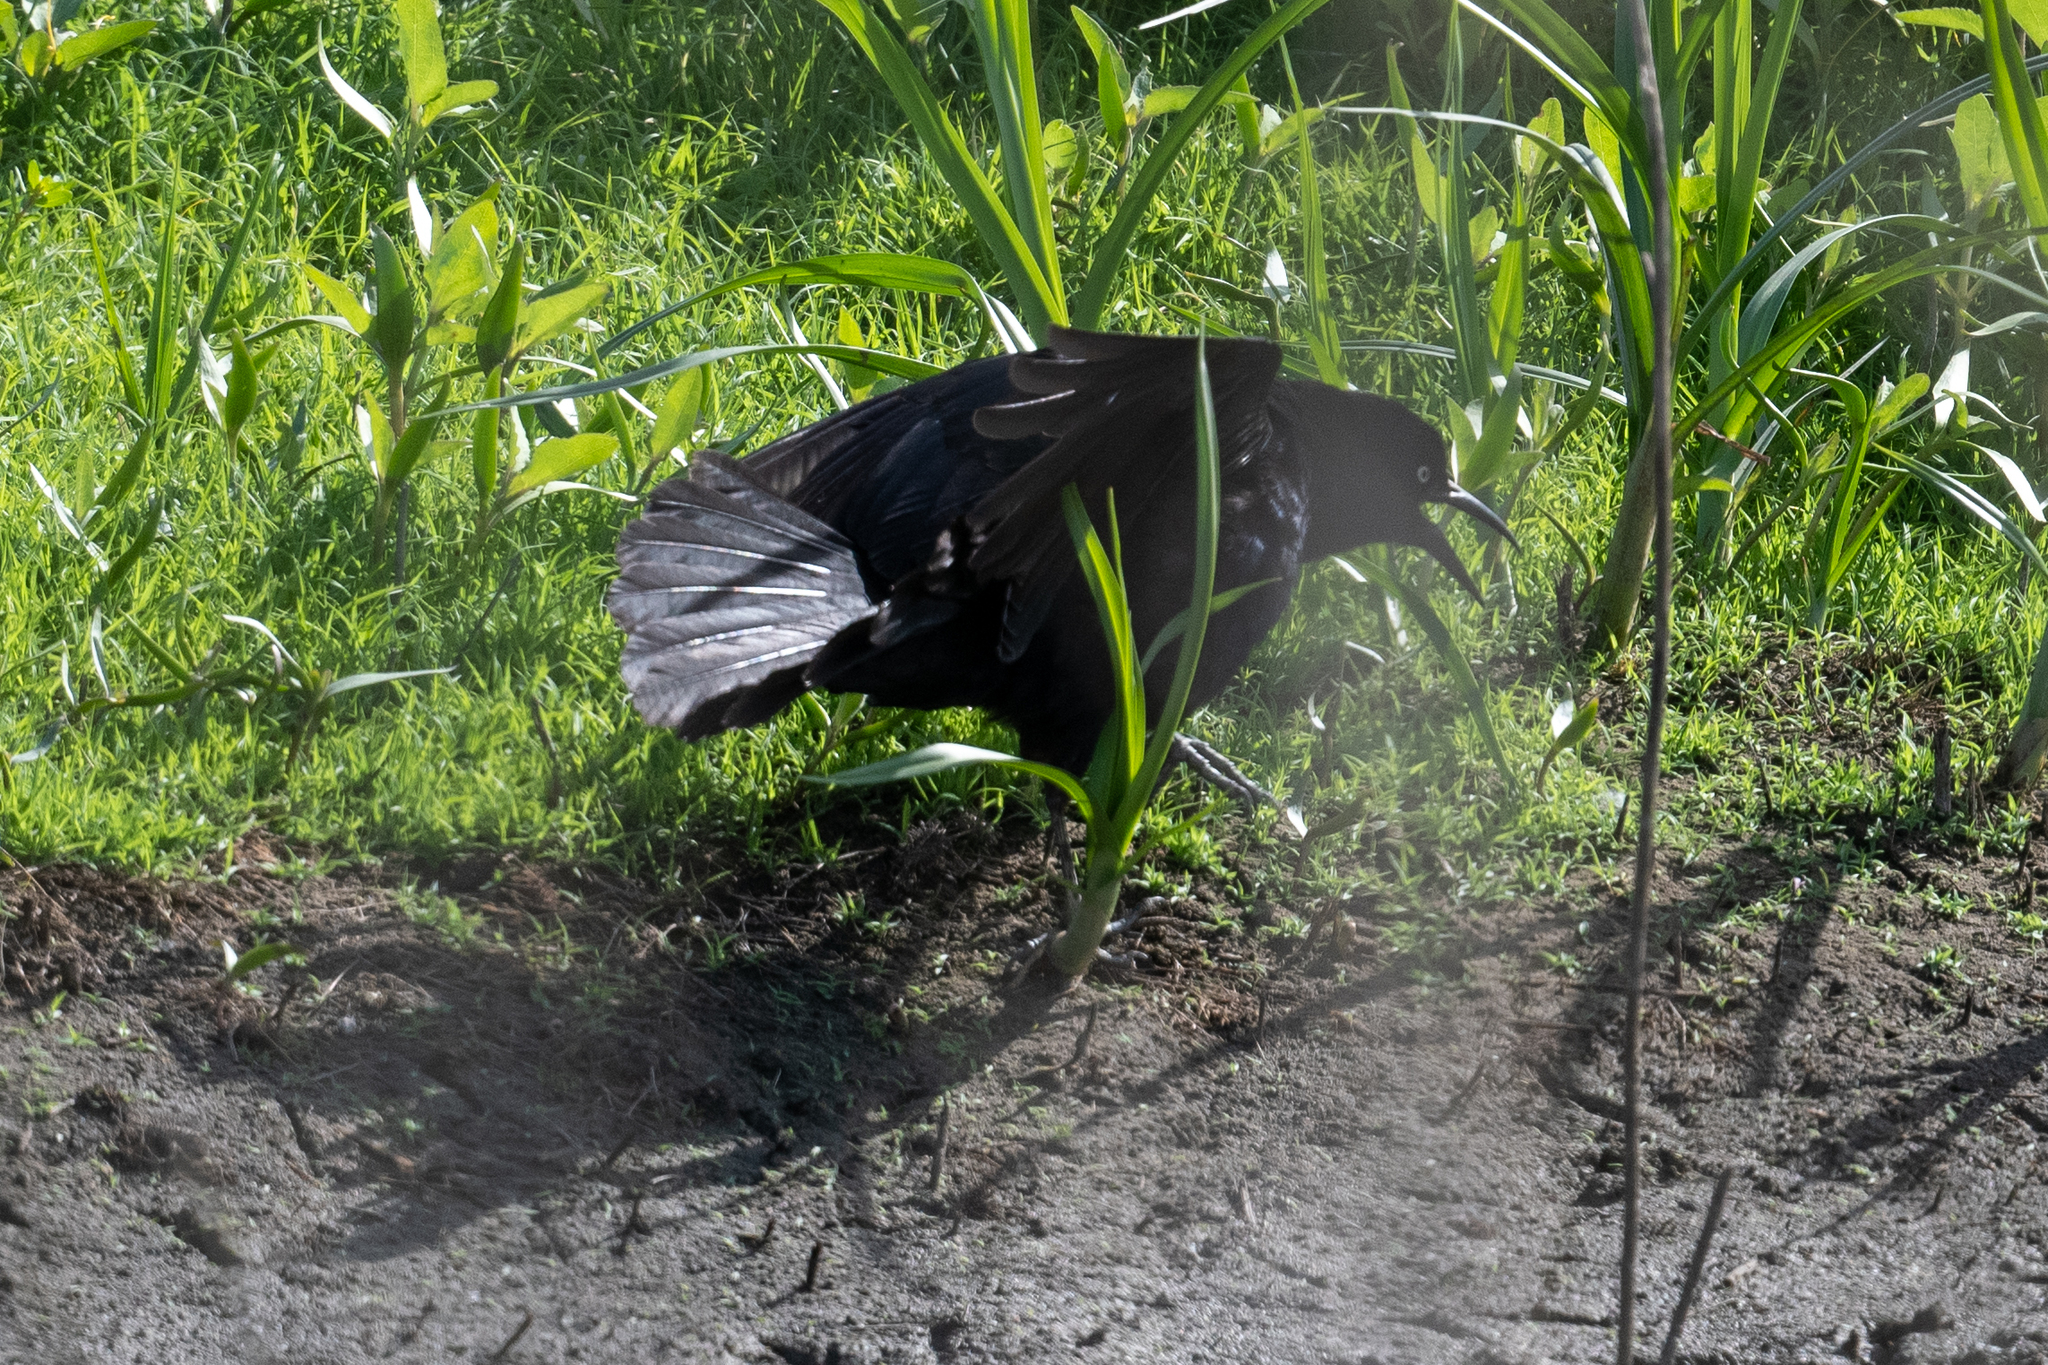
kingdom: Animalia
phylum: Chordata
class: Aves
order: Passeriformes
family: Icteridae
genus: Quiscalus
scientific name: Quiscalus mexicanus
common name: Great-tailed grackle
